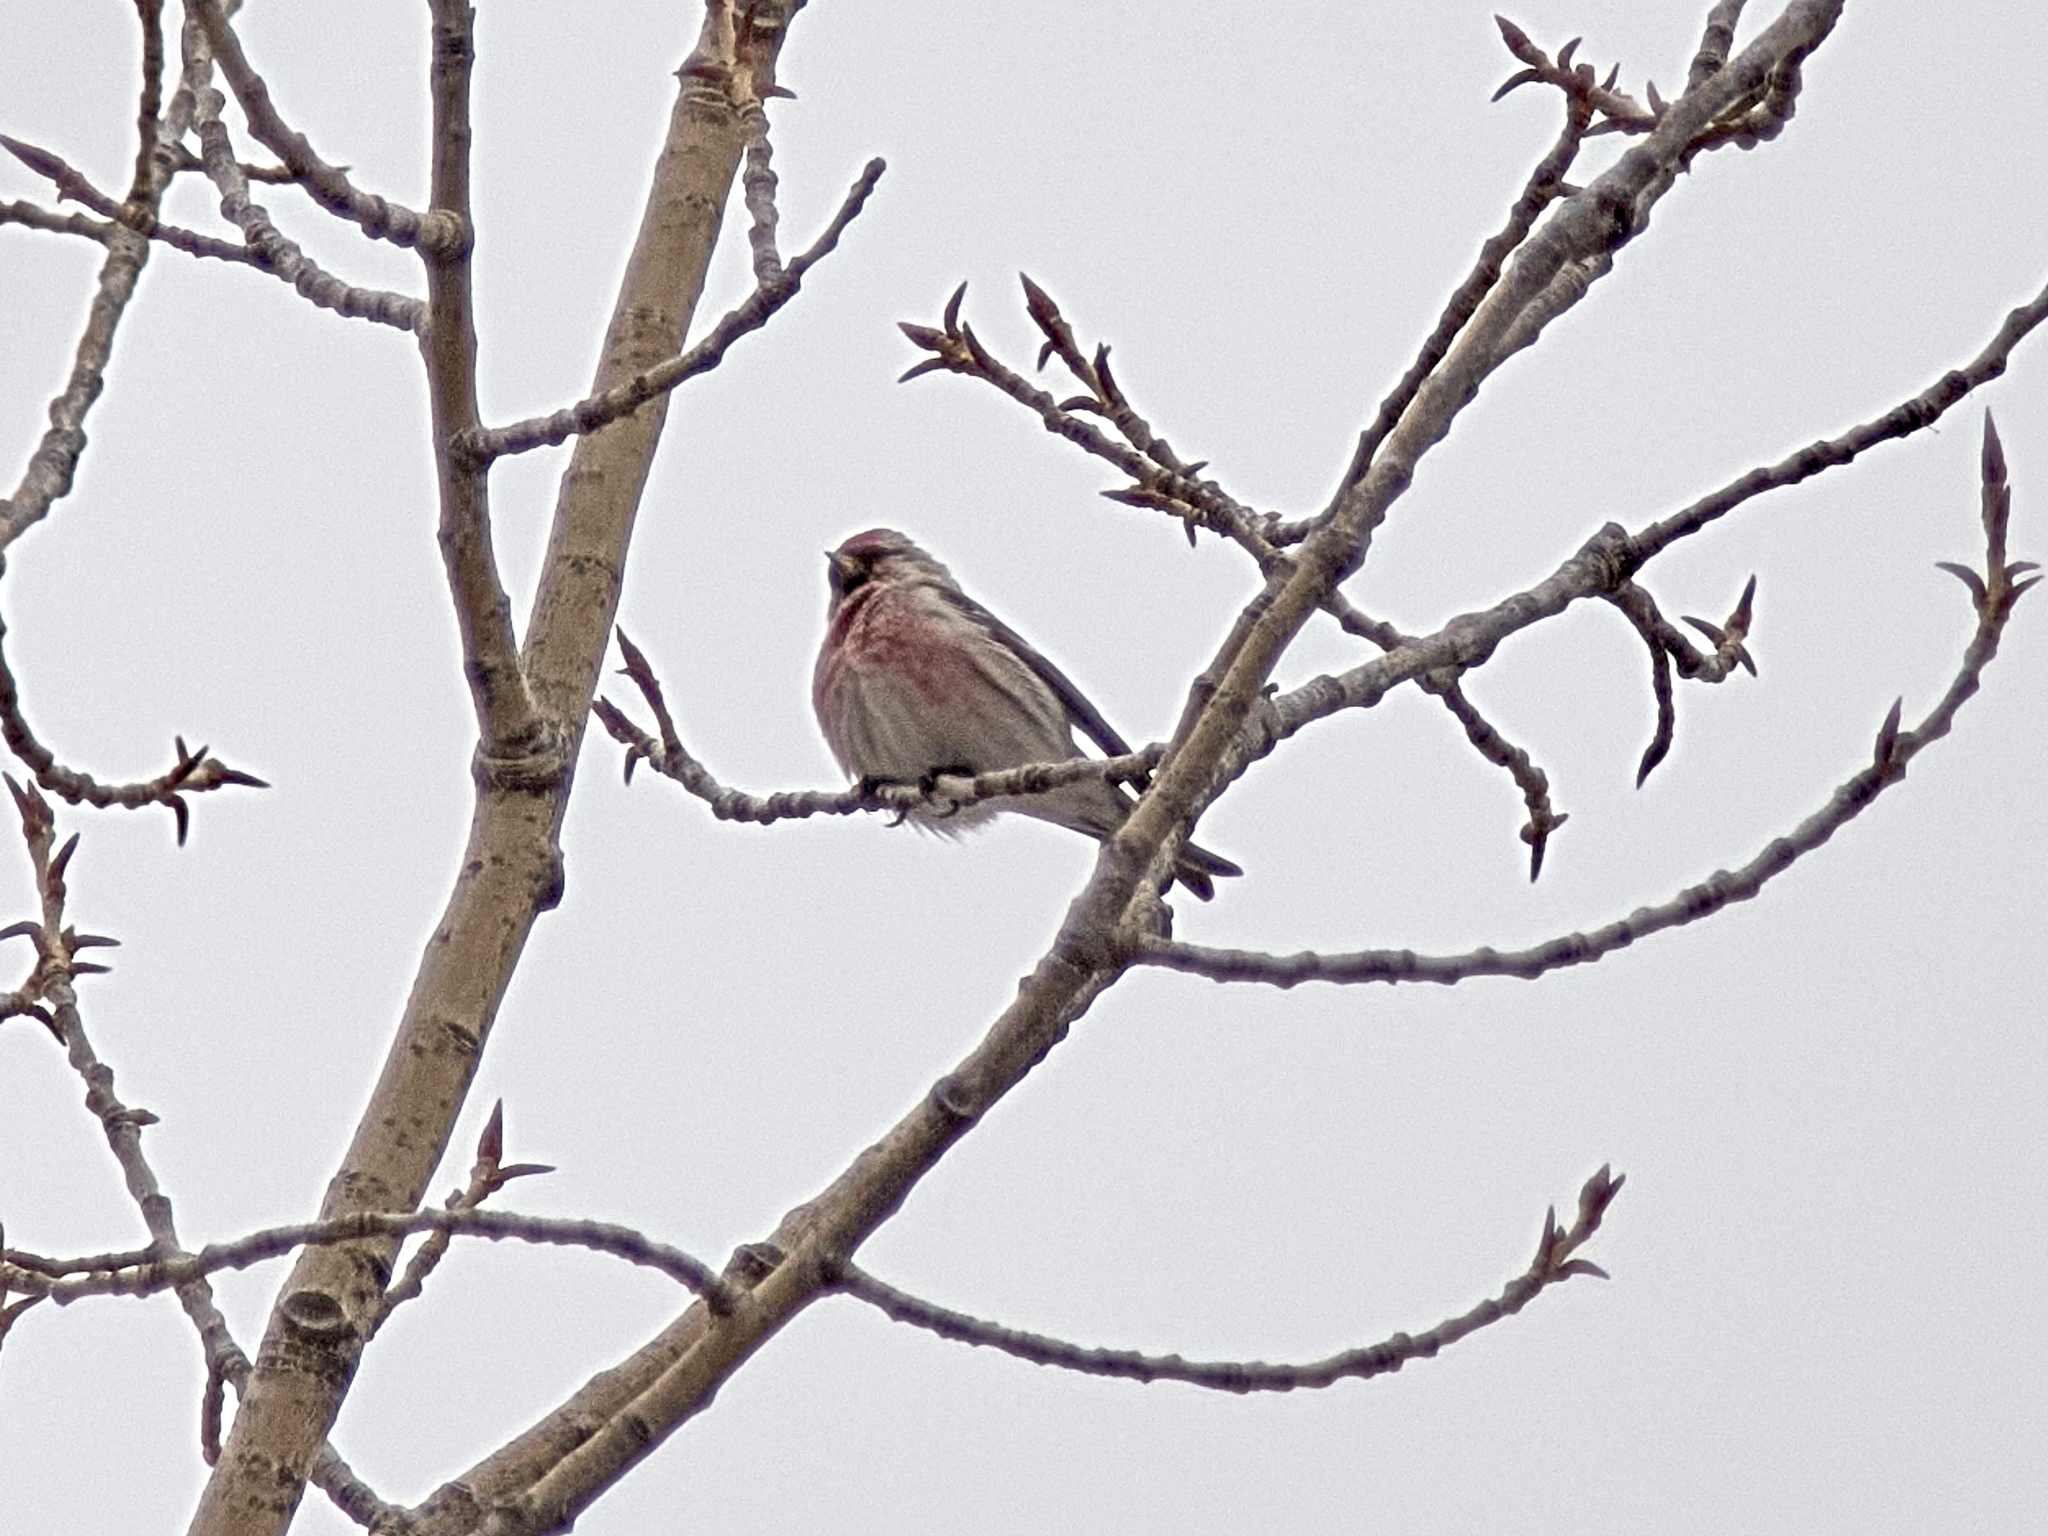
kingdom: Animalia
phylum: Chordata
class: Aves
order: Passeriformes
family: Fringillidae
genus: Acanthis
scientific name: Acanthis flammea
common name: Common redpoll
